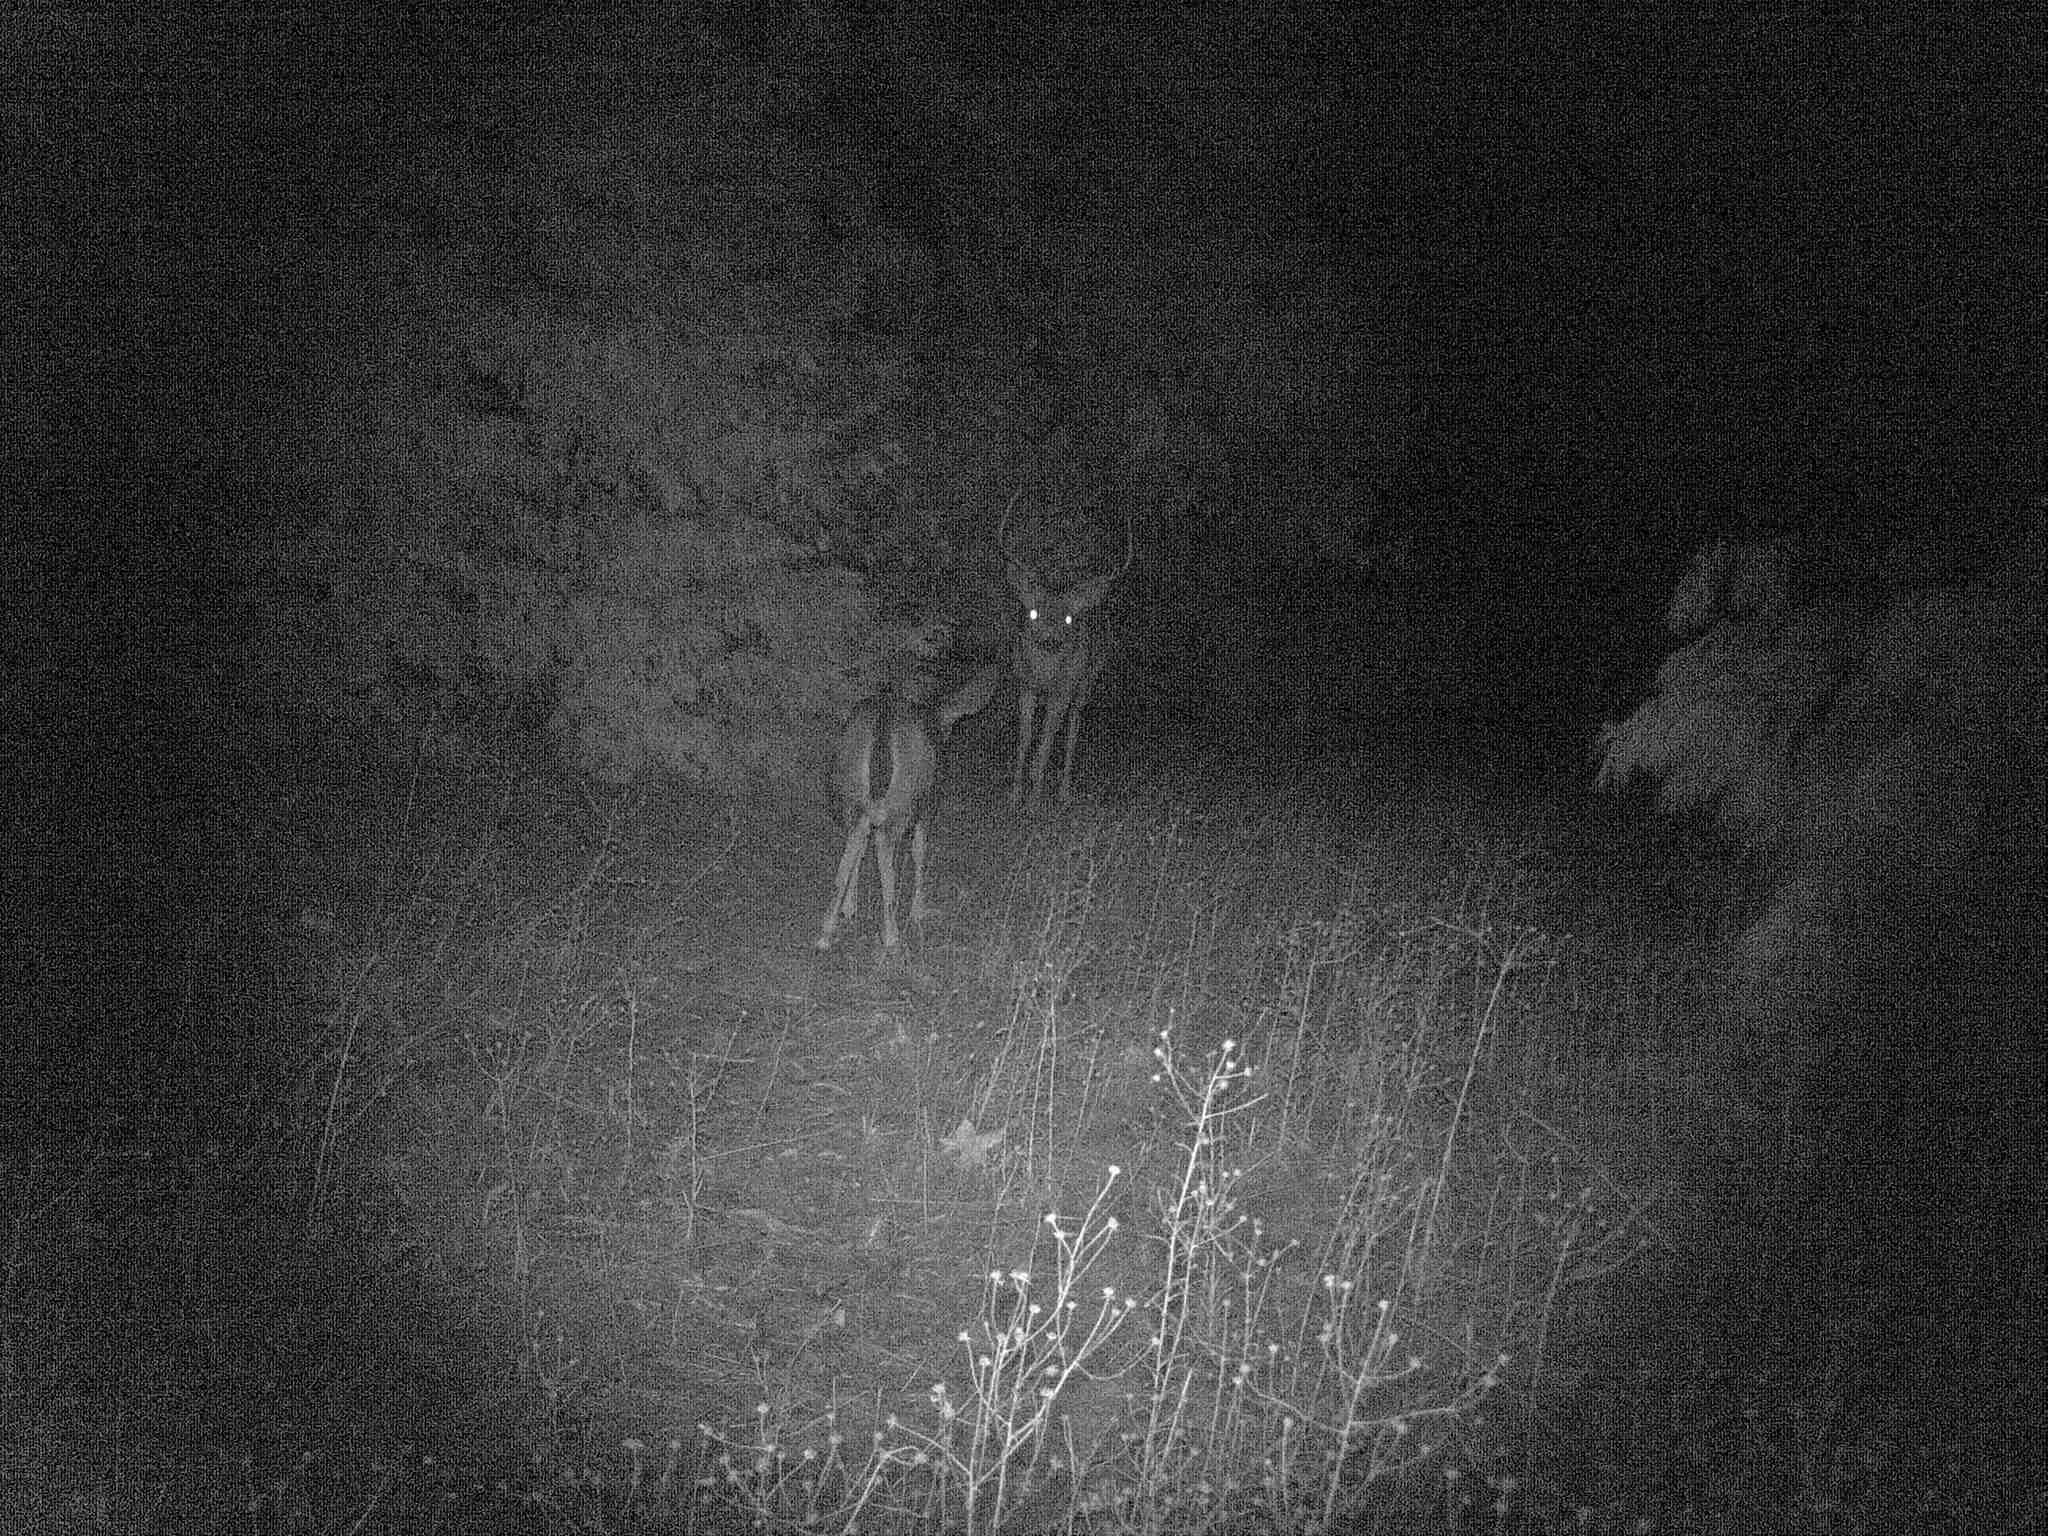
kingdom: Animalia
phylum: Chordata
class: Mammalia
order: Artiodactyla
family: Cervidae
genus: Odocoileus
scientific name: Odocoileus hemionus
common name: Mule deer
